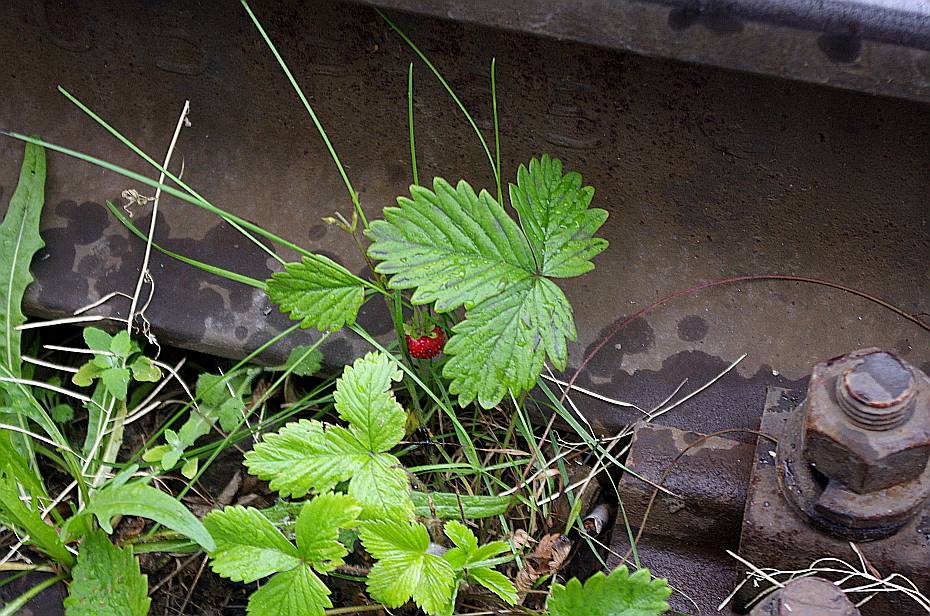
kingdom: Plantae
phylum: Tracheophyta
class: Magnoliopsida
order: Rosales
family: Rosaceae
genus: Fragaria
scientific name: Fragaria vesca
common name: Wild strawberry
